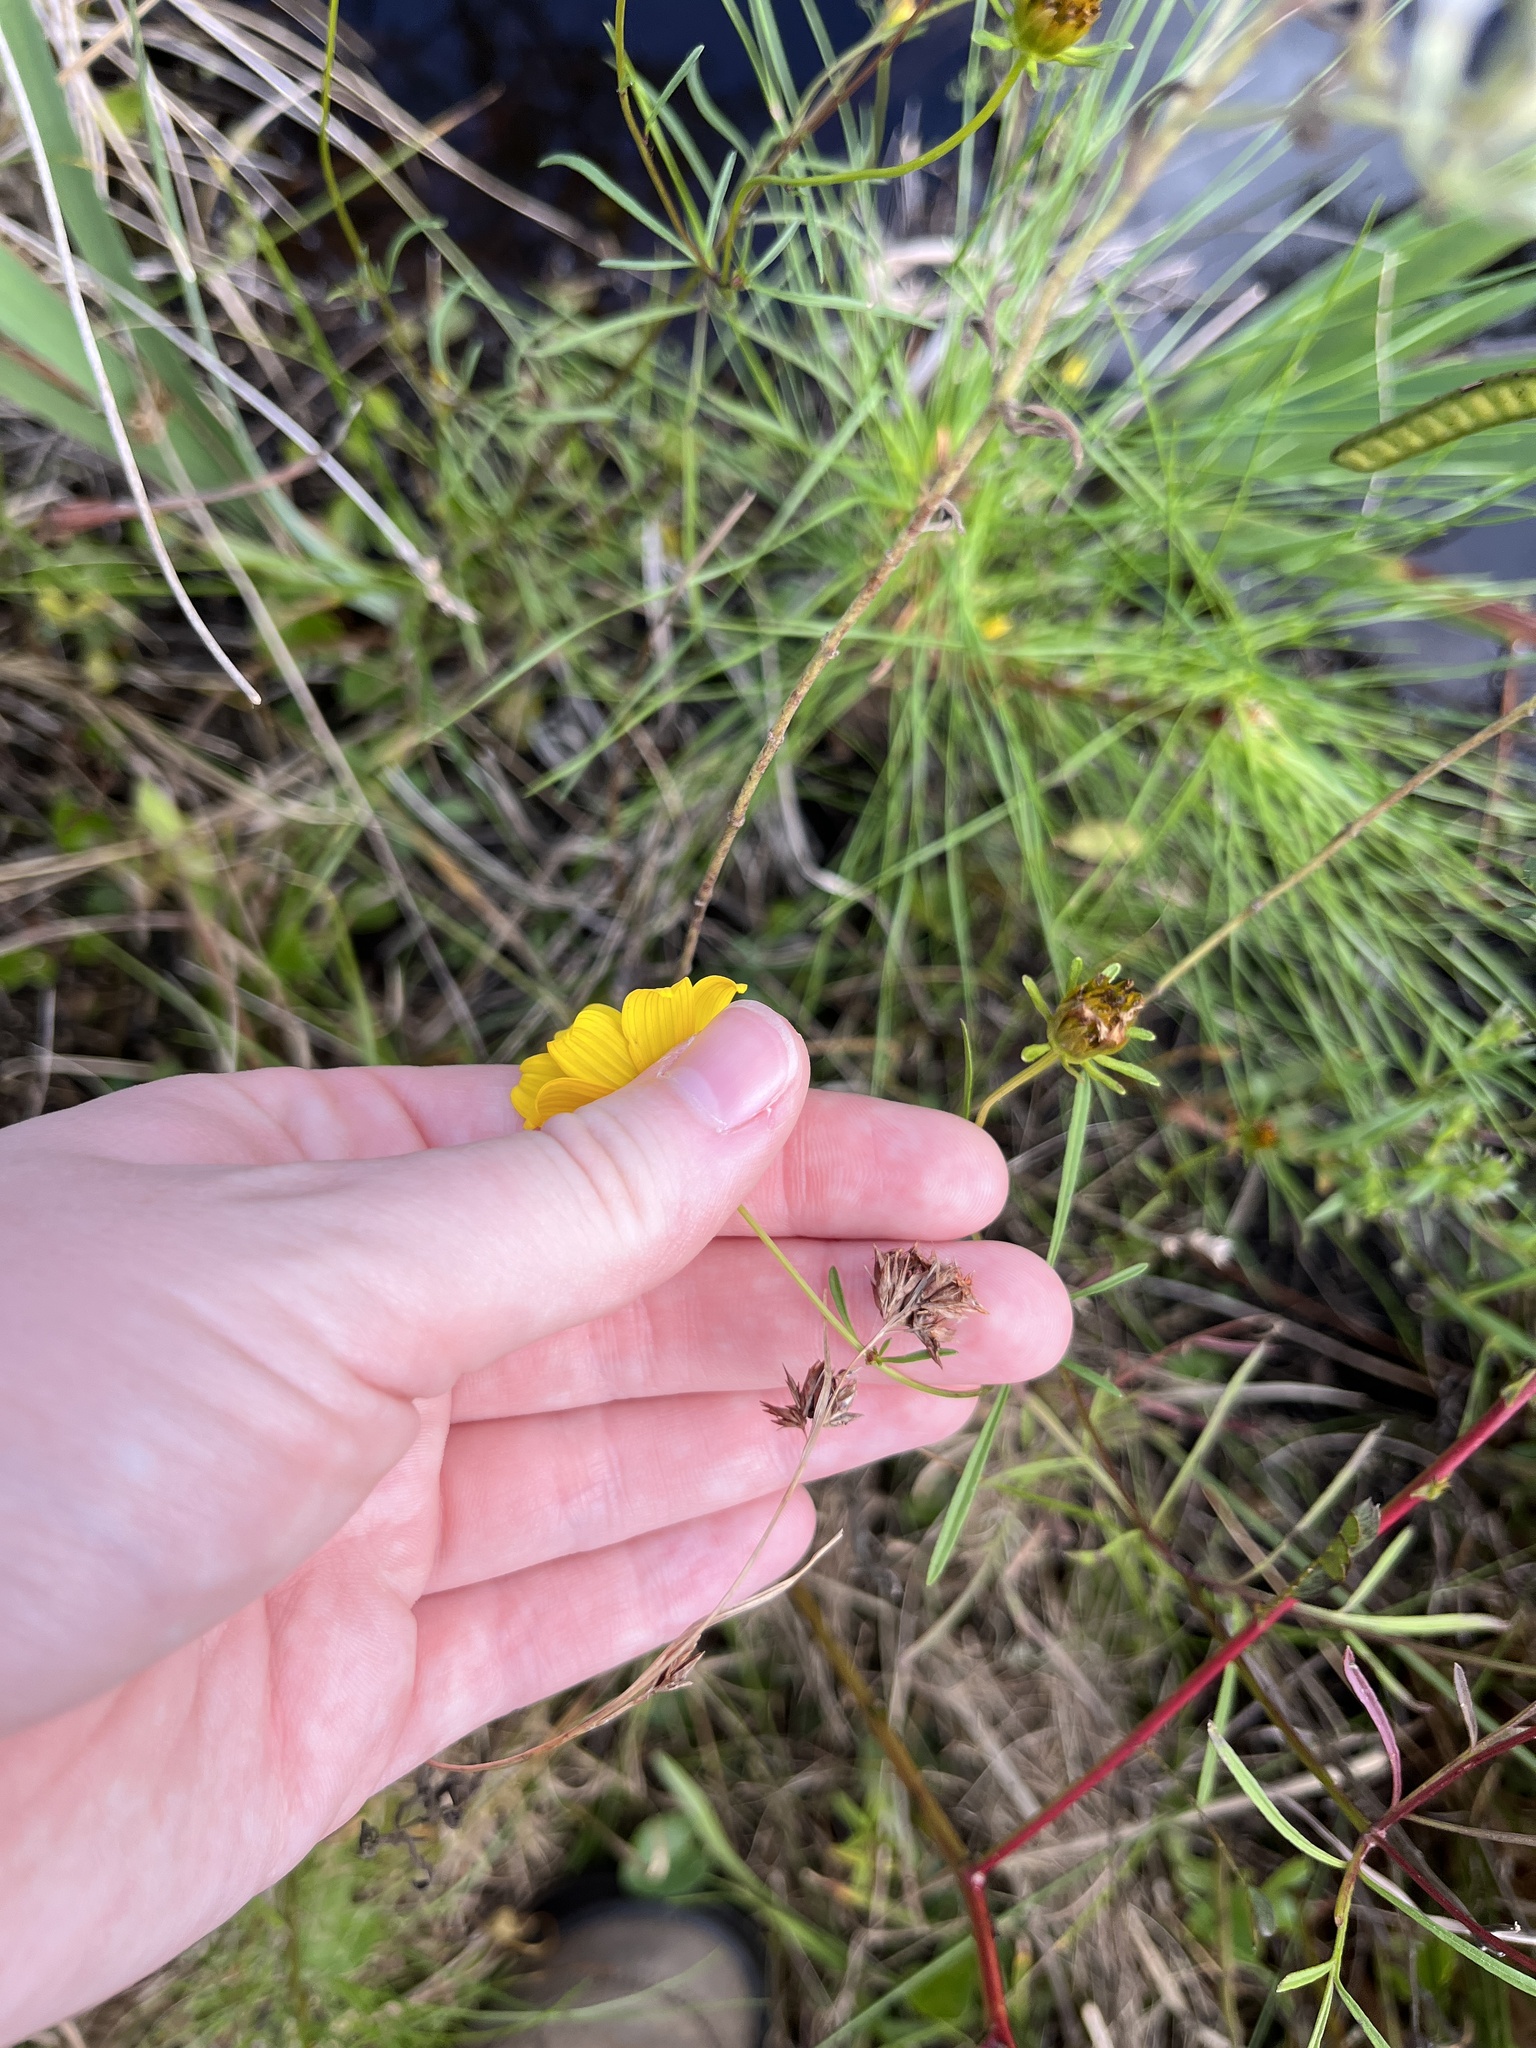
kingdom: Plantae
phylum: Tracheophyta
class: Magnoliopsida
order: Asterales
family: Asteraceae
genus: Bidens
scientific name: Bidens trichosperma
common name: Crowned beggarticks
